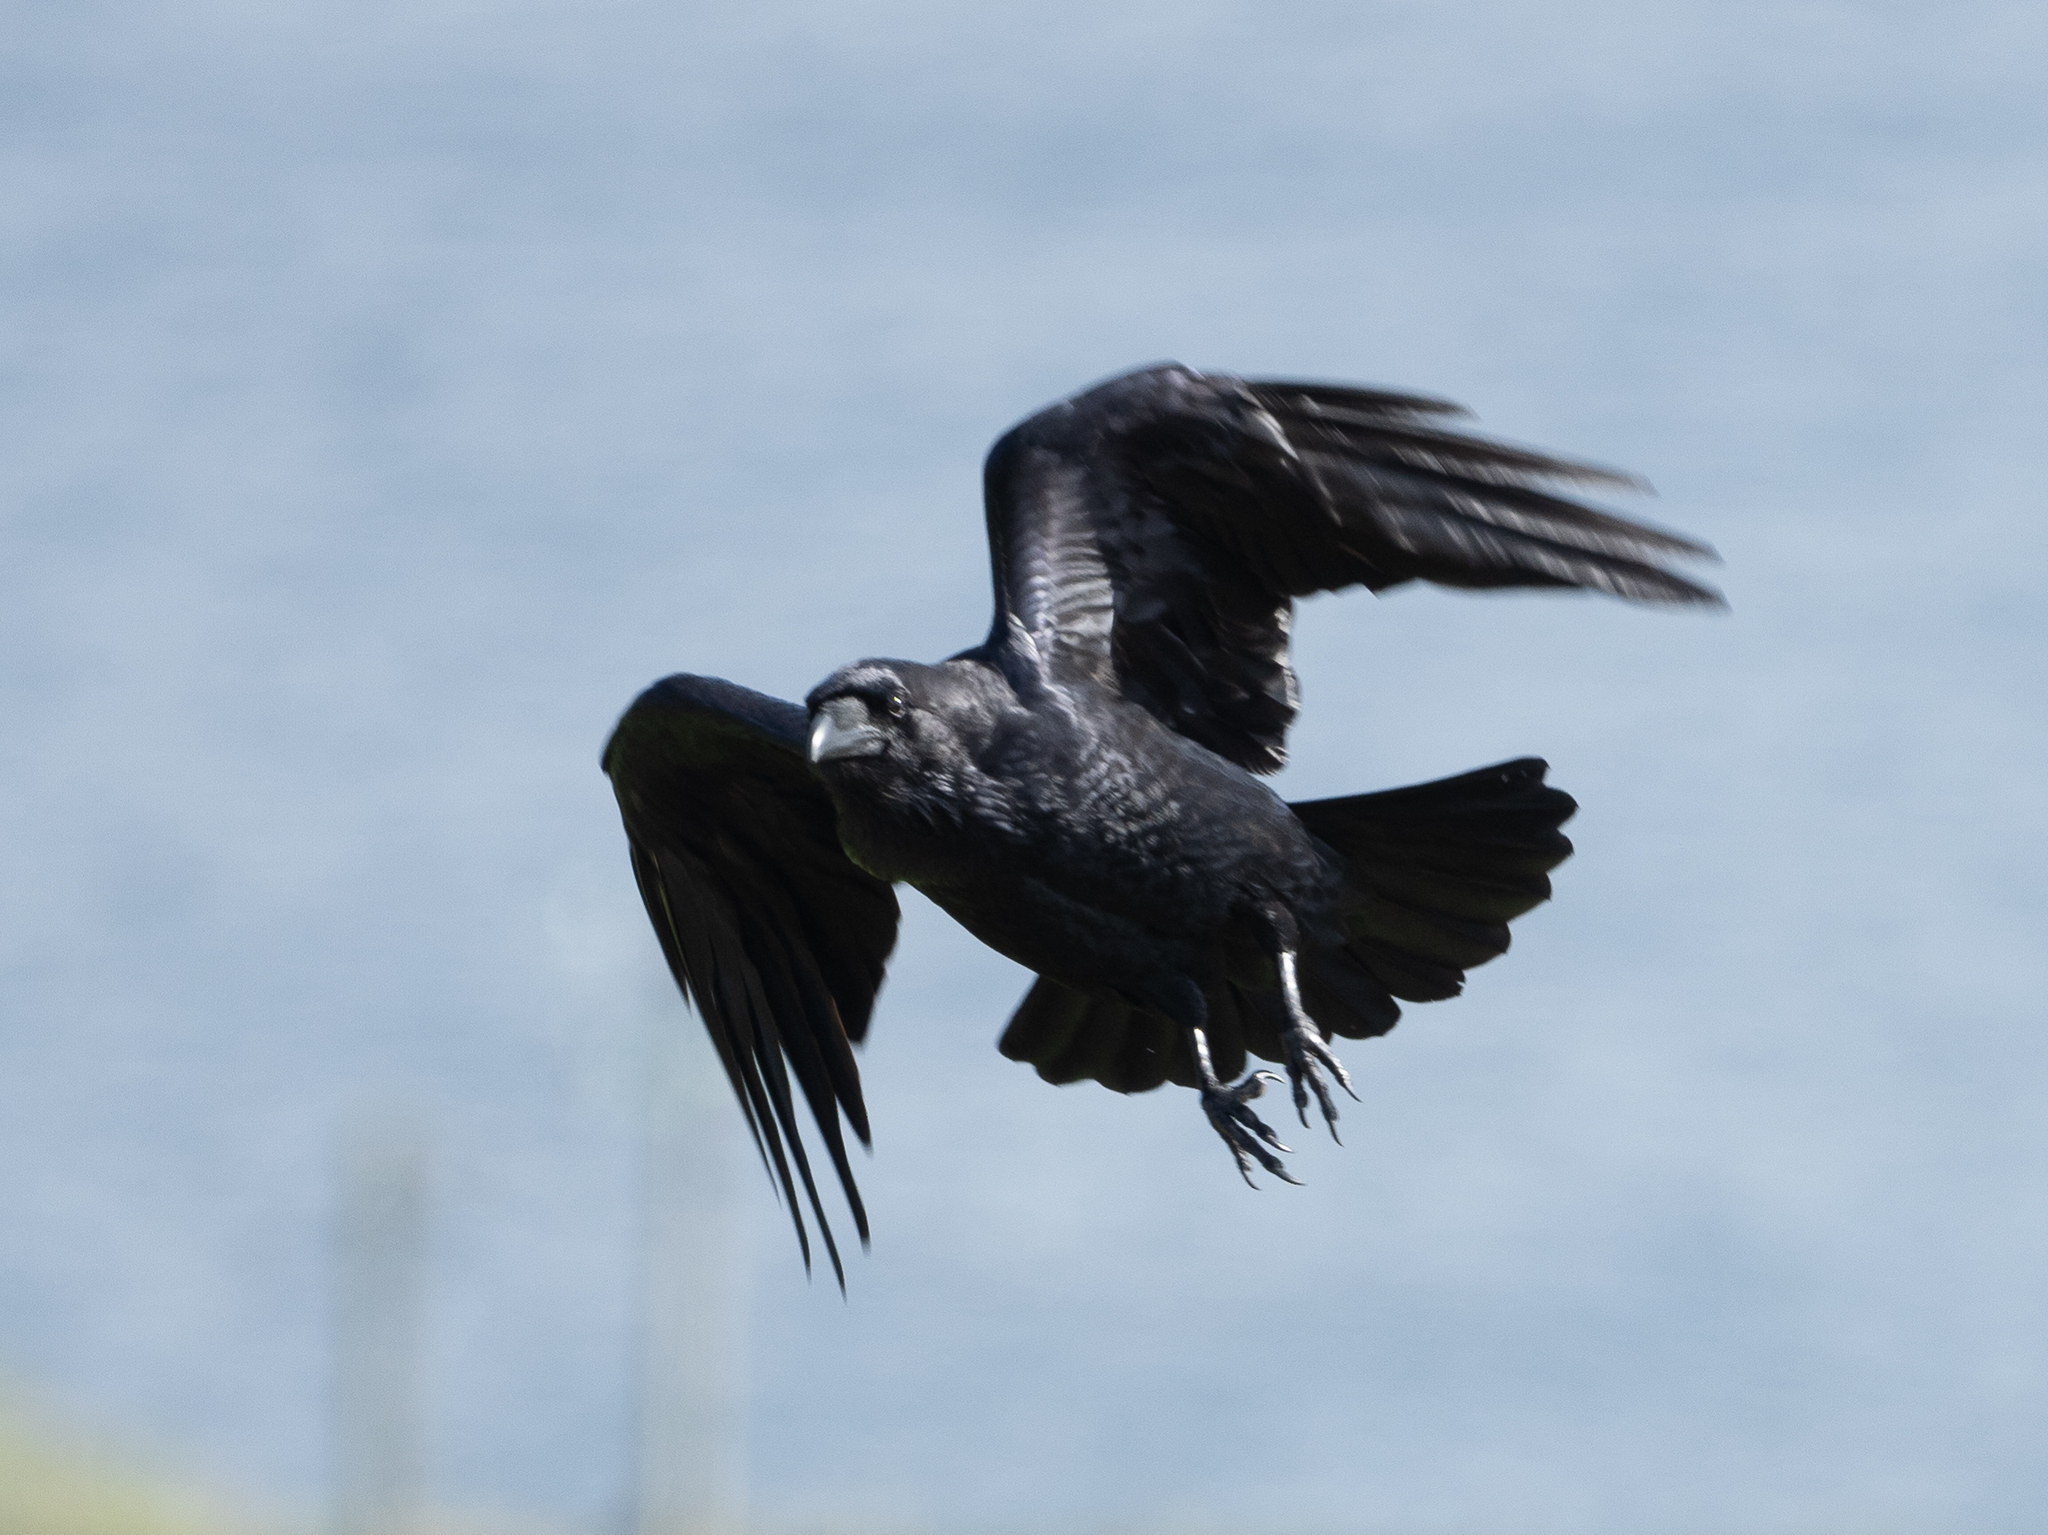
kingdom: Animalia
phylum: Chordata
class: Aves
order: Passeriformes
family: Corvidae
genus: Corvus
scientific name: Corvus corax
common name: Common raven
